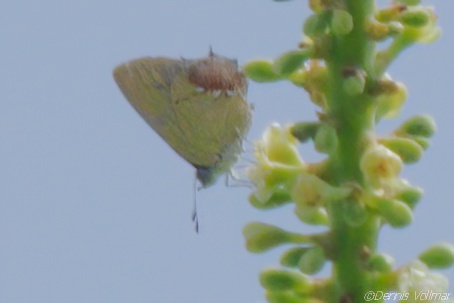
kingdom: Animalia
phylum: Arthropoda
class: Insecta
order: Lepidoptera
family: Lycaenidae
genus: Thecla
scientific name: Thecla maesites
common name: Verde azul hairstreak
